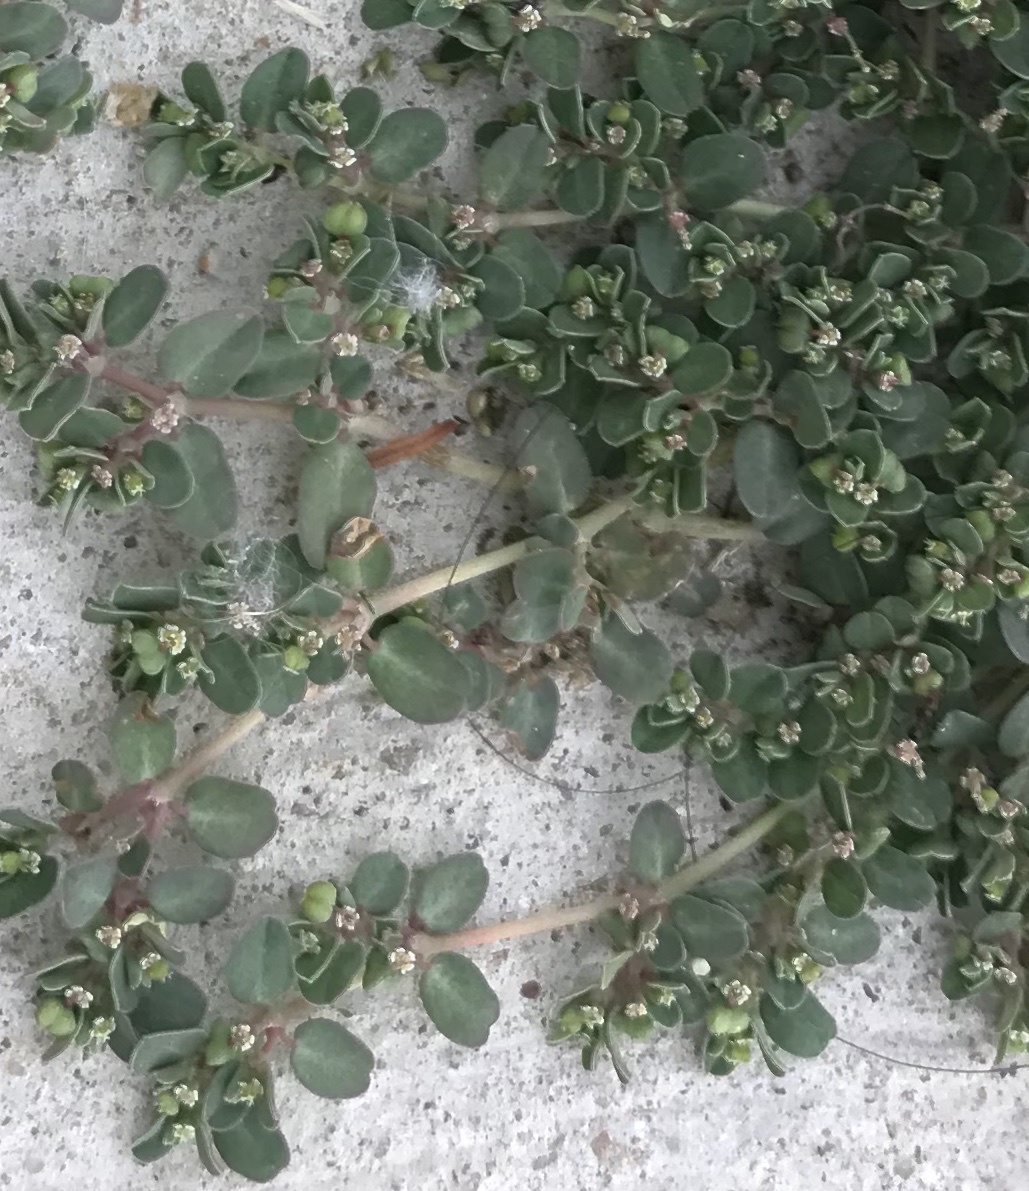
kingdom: Plantae
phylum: Tracheophyta
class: Magnoliopsida
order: Malpighiales
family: Euphorbiaceae
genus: Euphorbia
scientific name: Euphorbia serpens
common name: Matted sandmat
